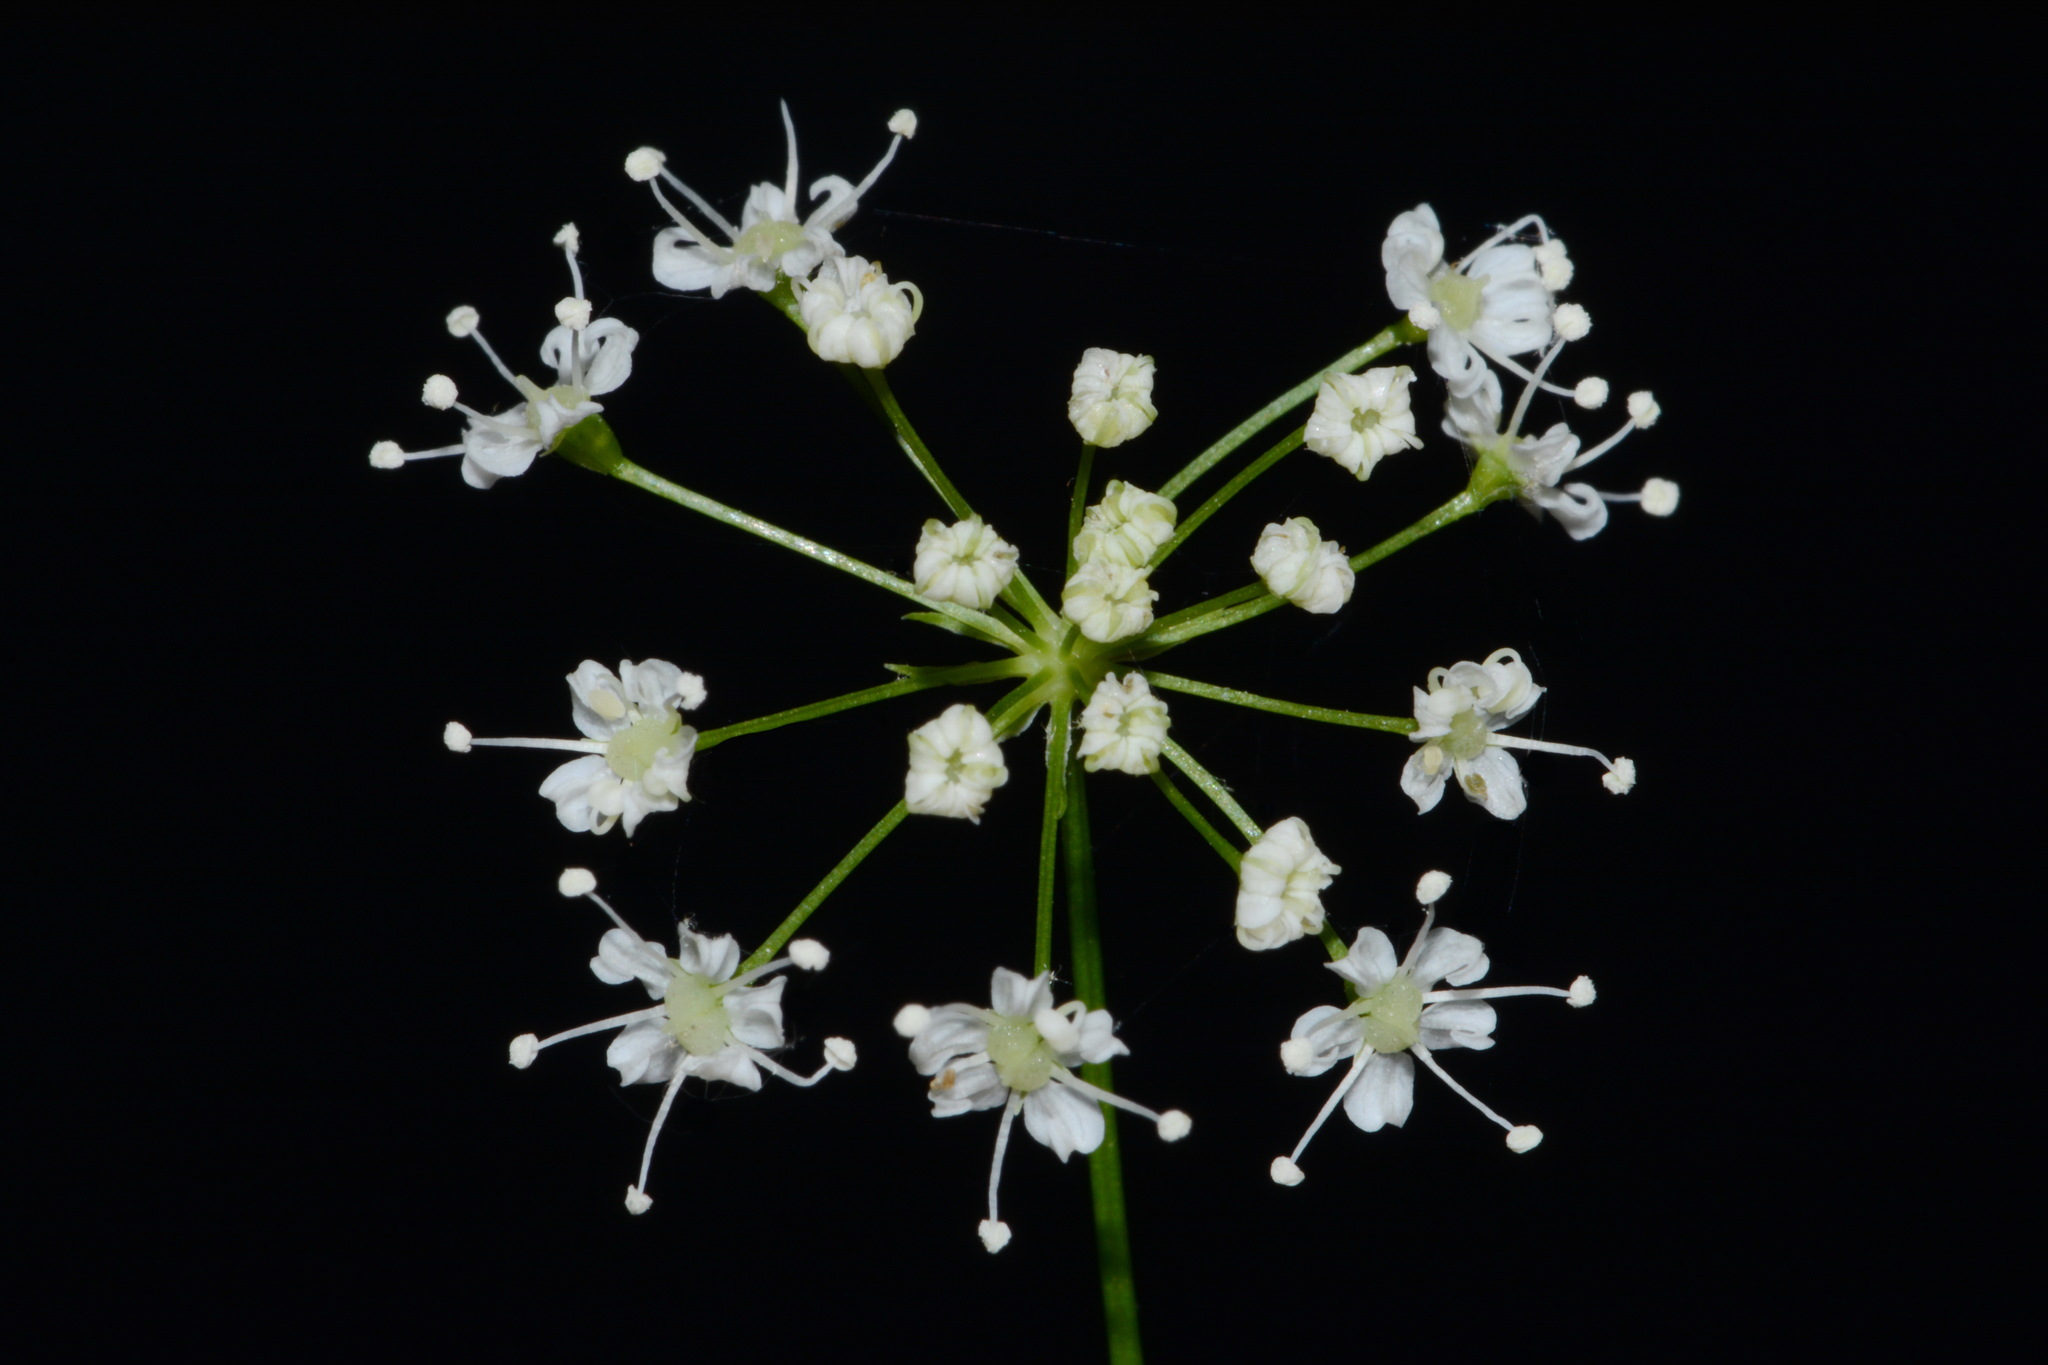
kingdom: Plantae
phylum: Tracheophyta
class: Magnoliopsida
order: Apiales
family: Apiaceae
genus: Perideridia
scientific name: Perideridia americana
